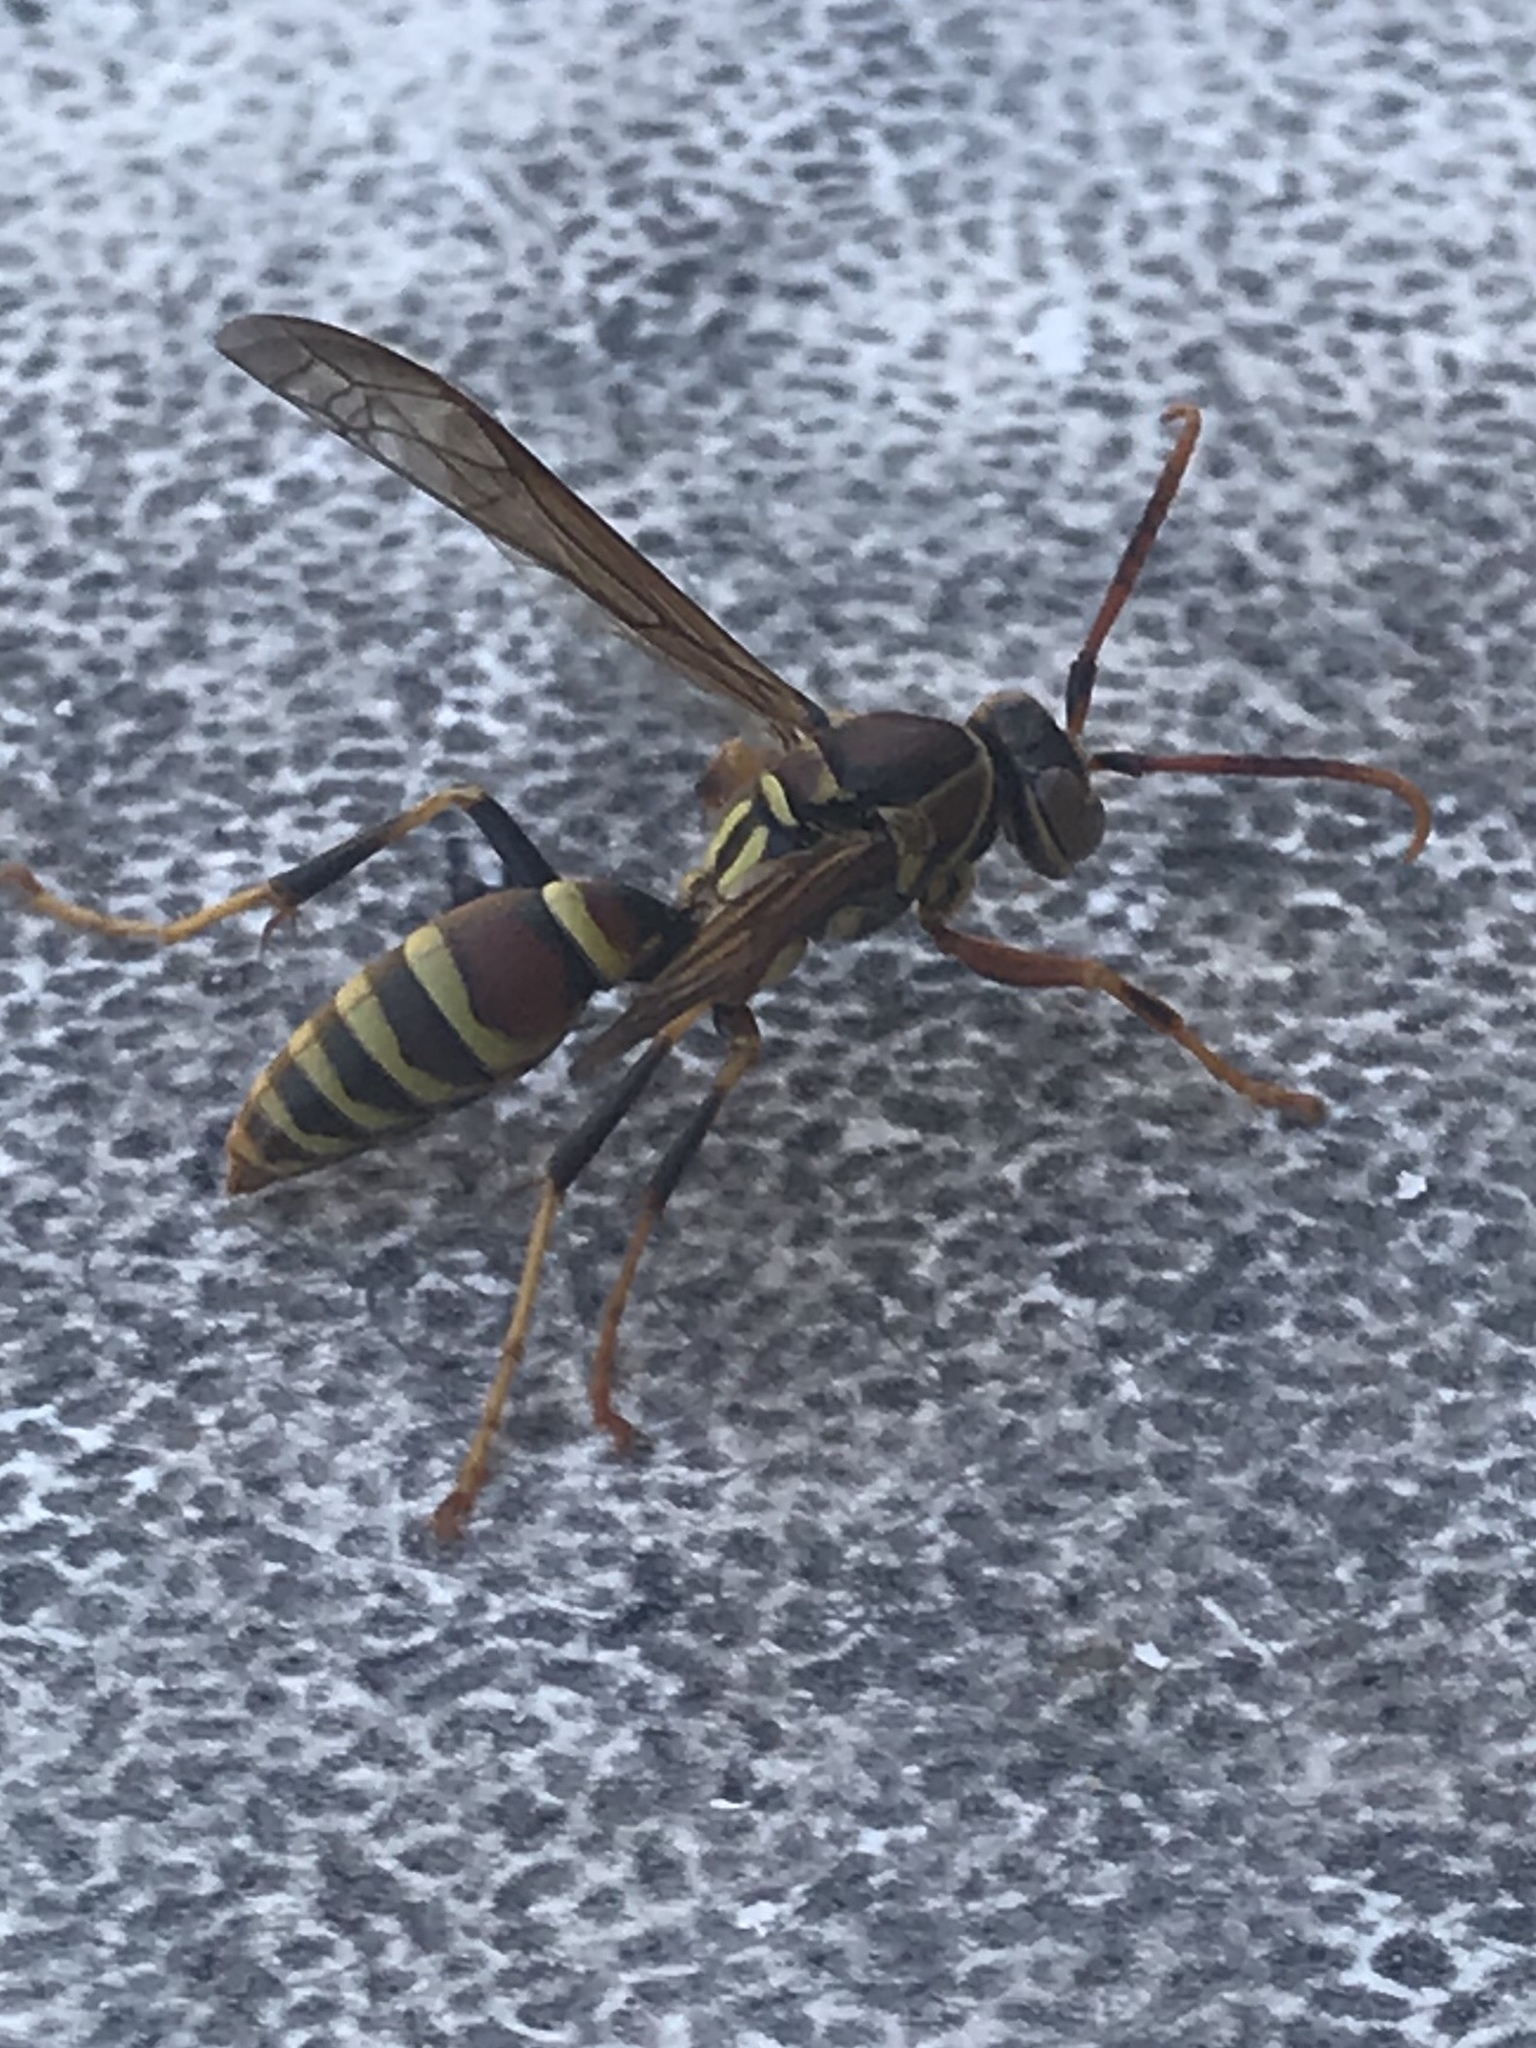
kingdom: Animalia
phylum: Arthropoda
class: Insecta
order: Hymenoptera
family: Eumenidae
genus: Polistes
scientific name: Polistes exclamans
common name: Paper wasp
